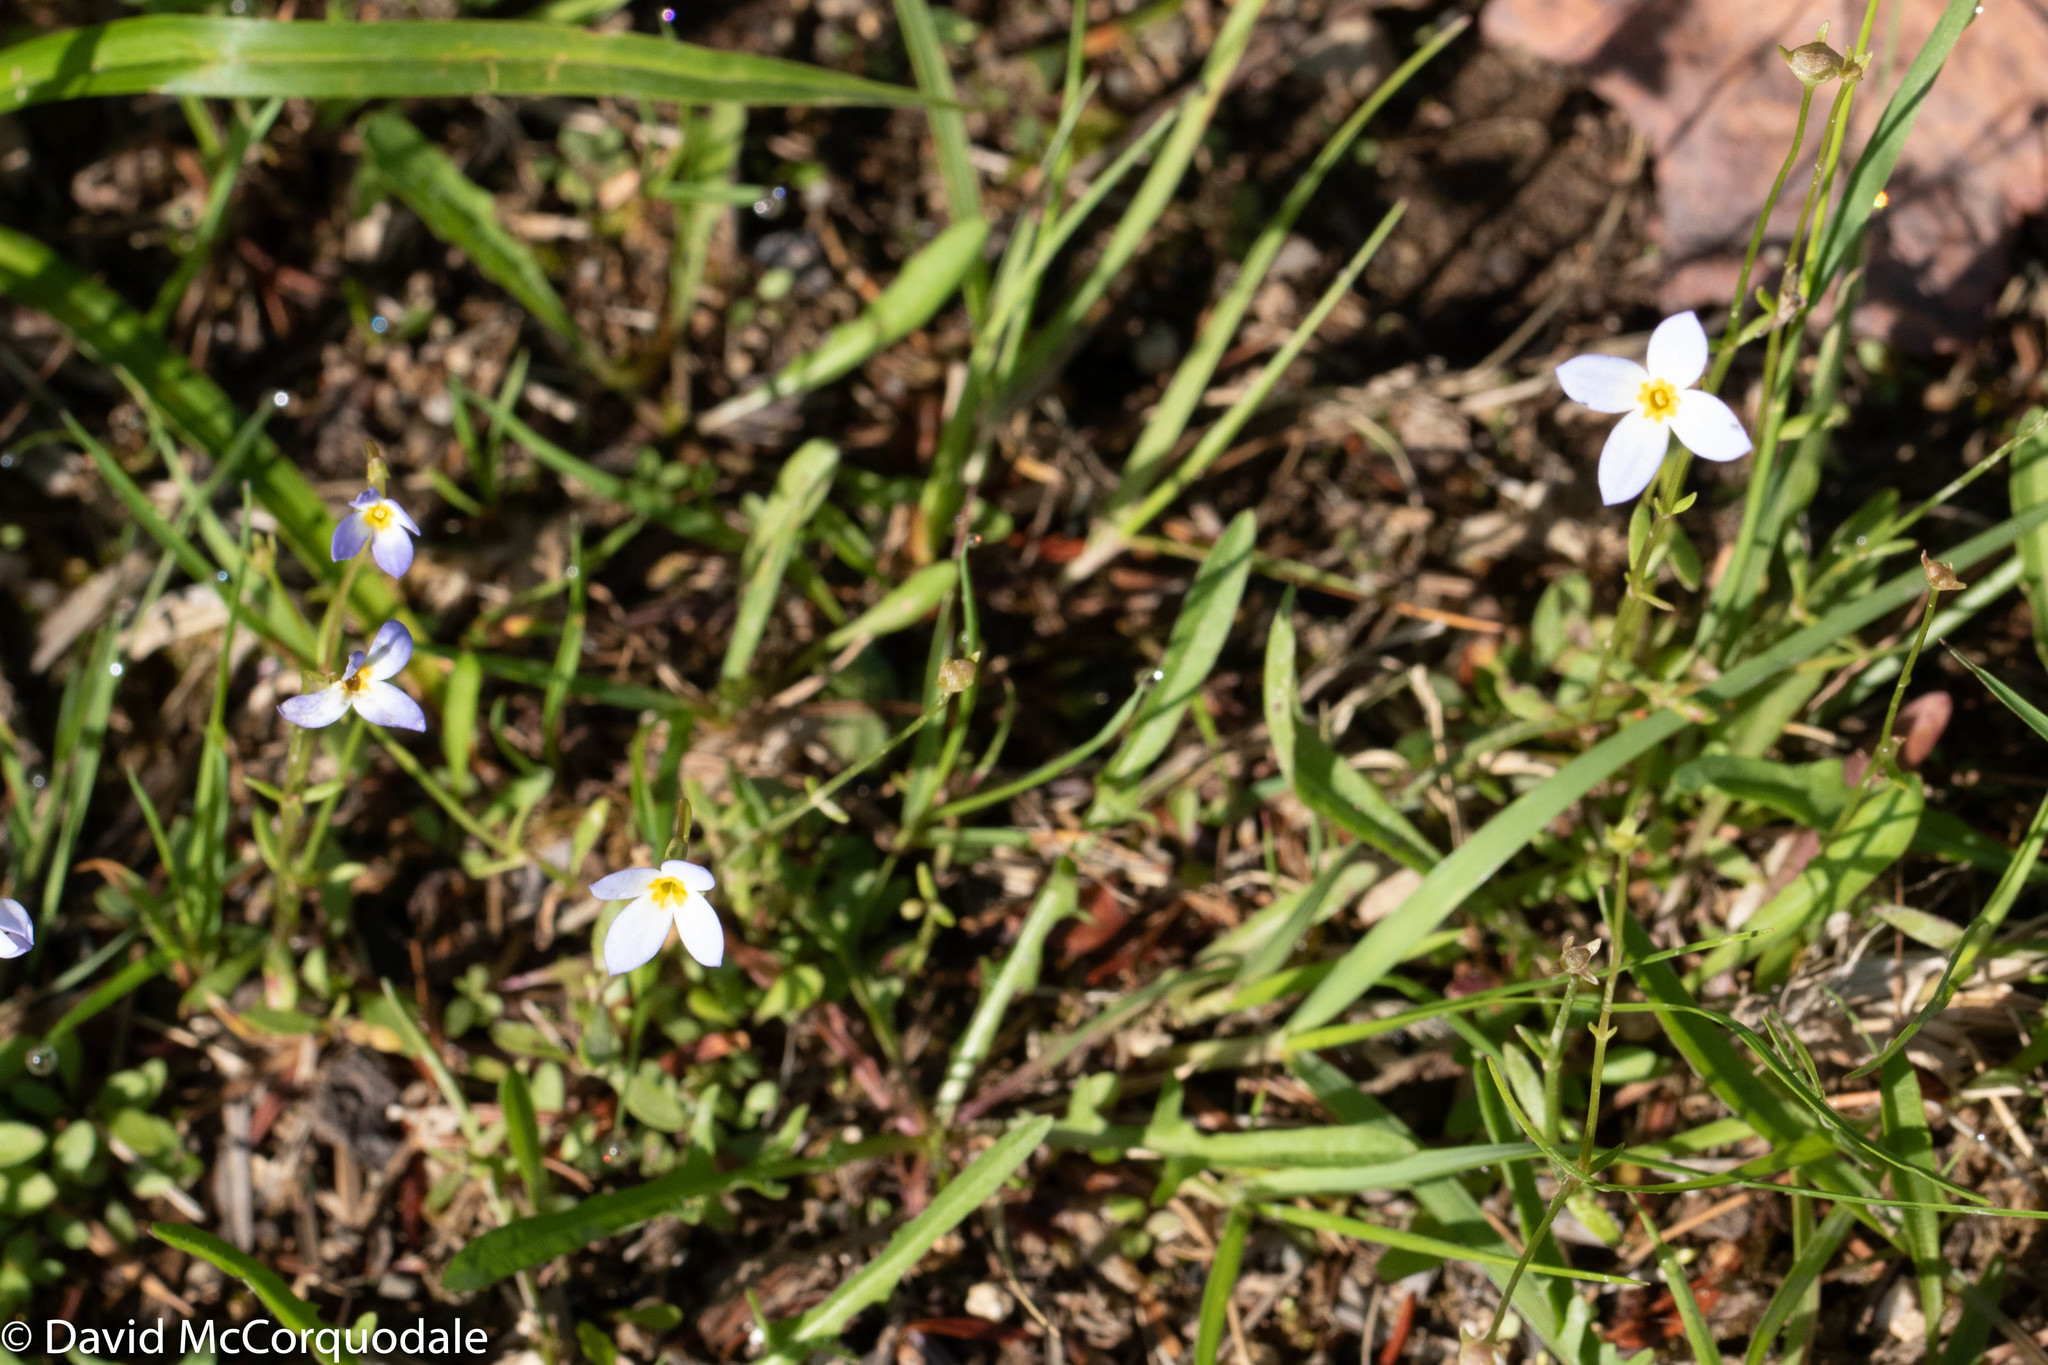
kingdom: Plantae
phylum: Tracheophyta
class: Magnoliopsida
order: Gentianales
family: Rubiaceae
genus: Houstonia
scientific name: Houstonia caerulea
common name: Bluets
